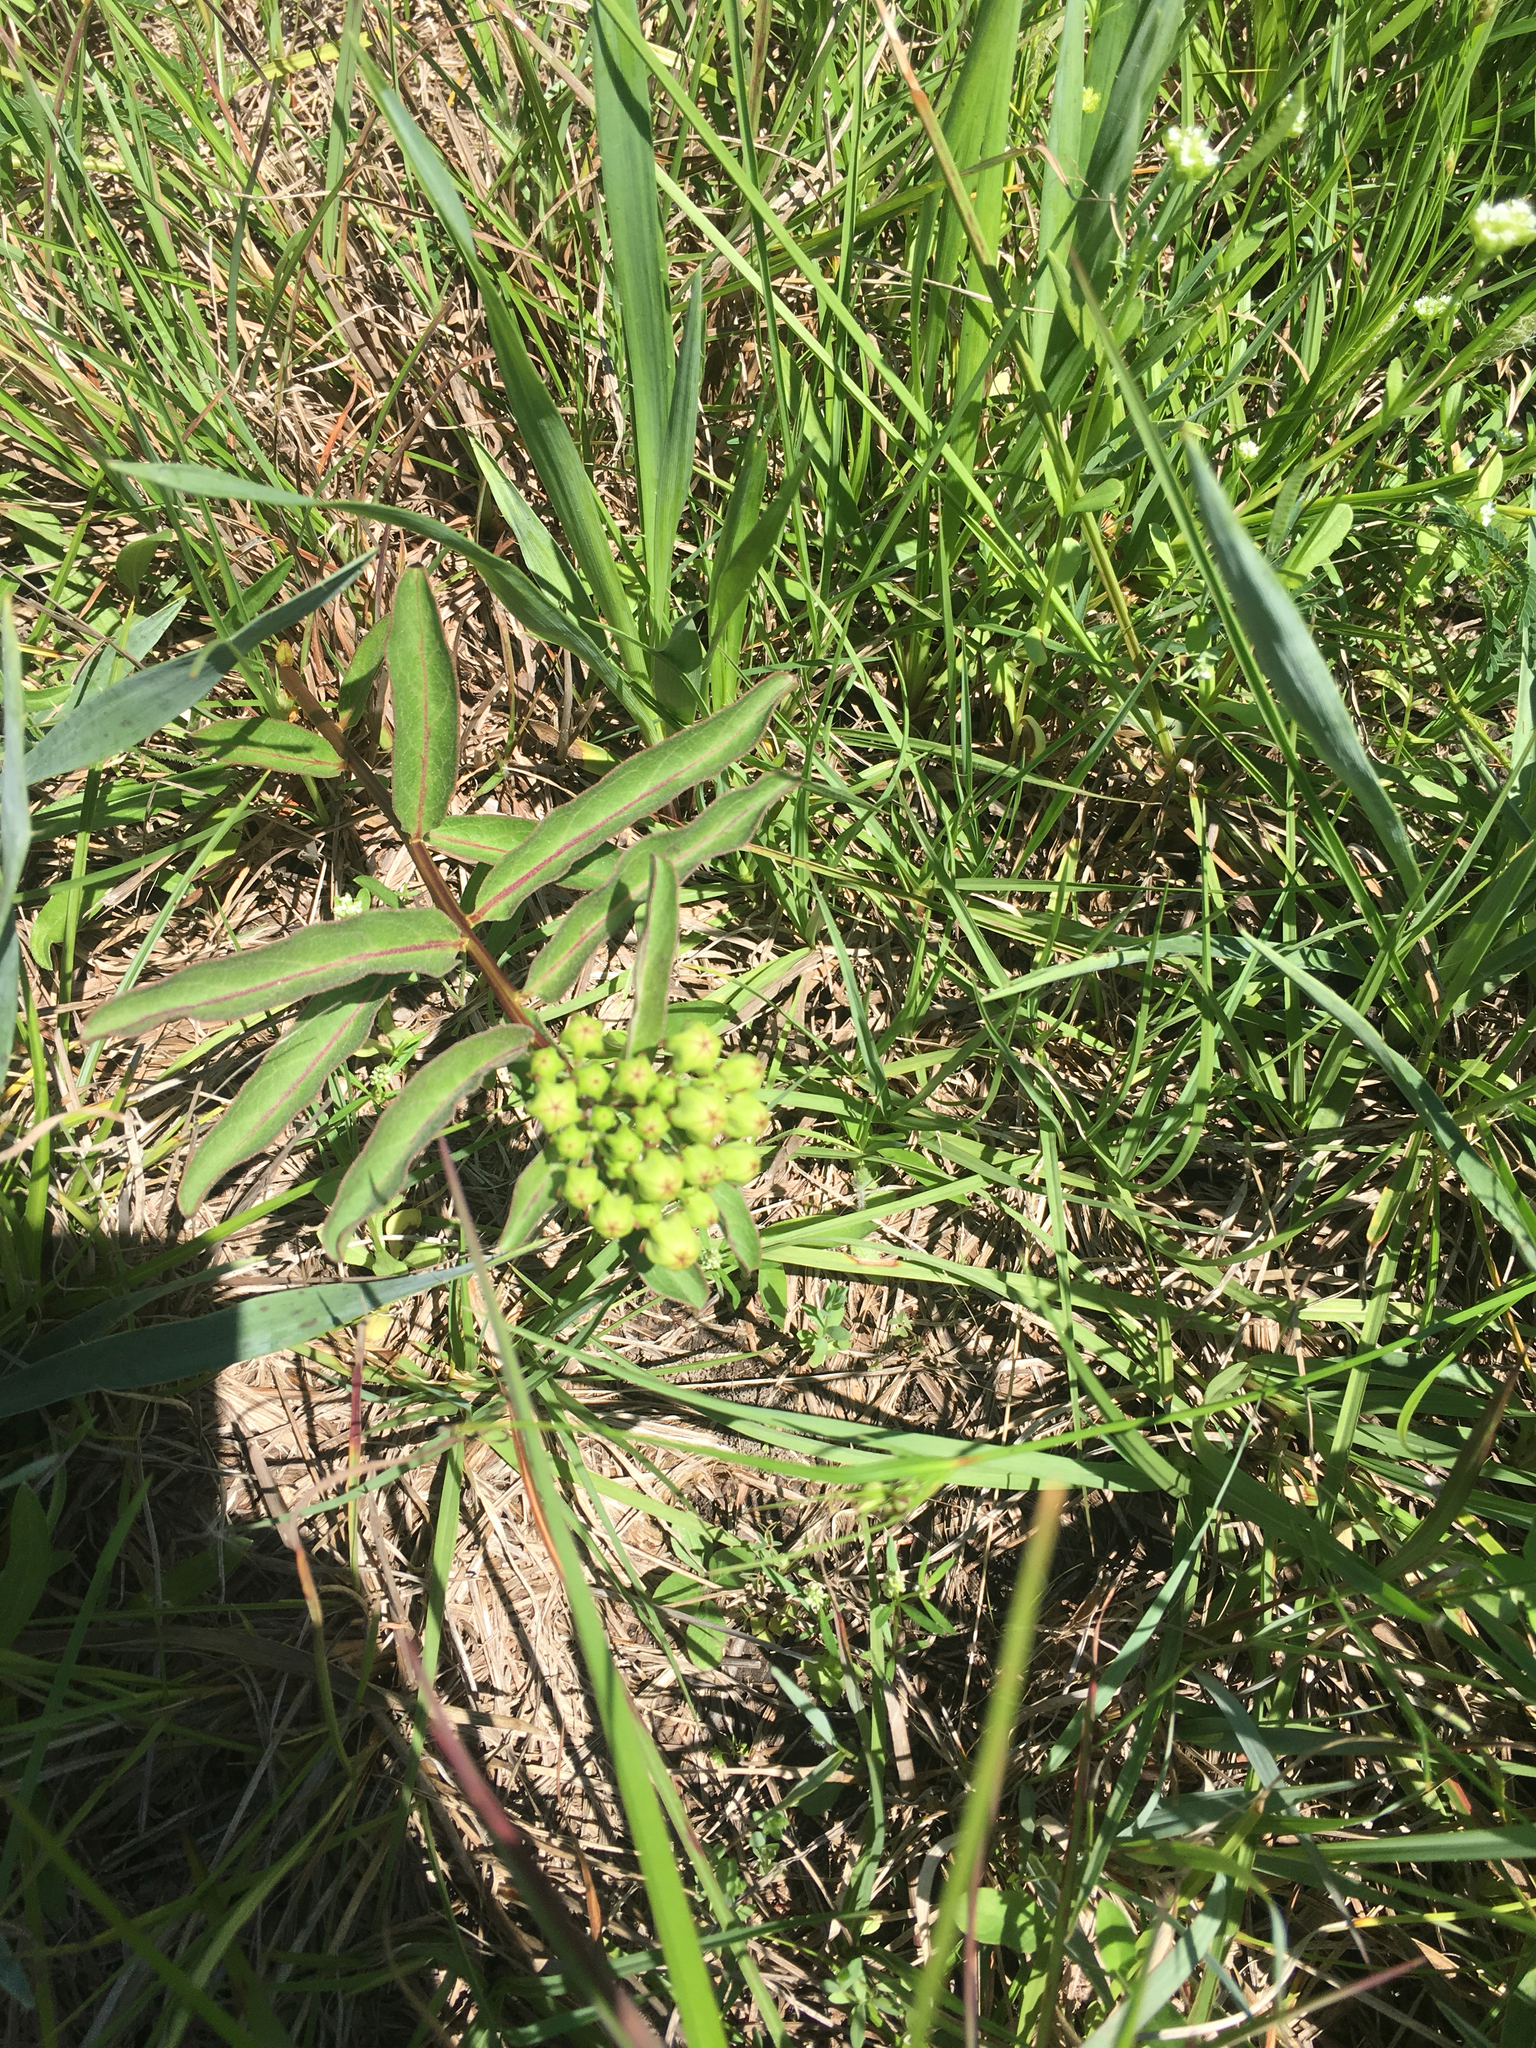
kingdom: Plantae
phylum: Tracheophyta
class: Magnoliopsida
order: Gentianales
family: Apocynaceae
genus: Asclepias
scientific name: Asclepias viridis
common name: Antelope-horns
